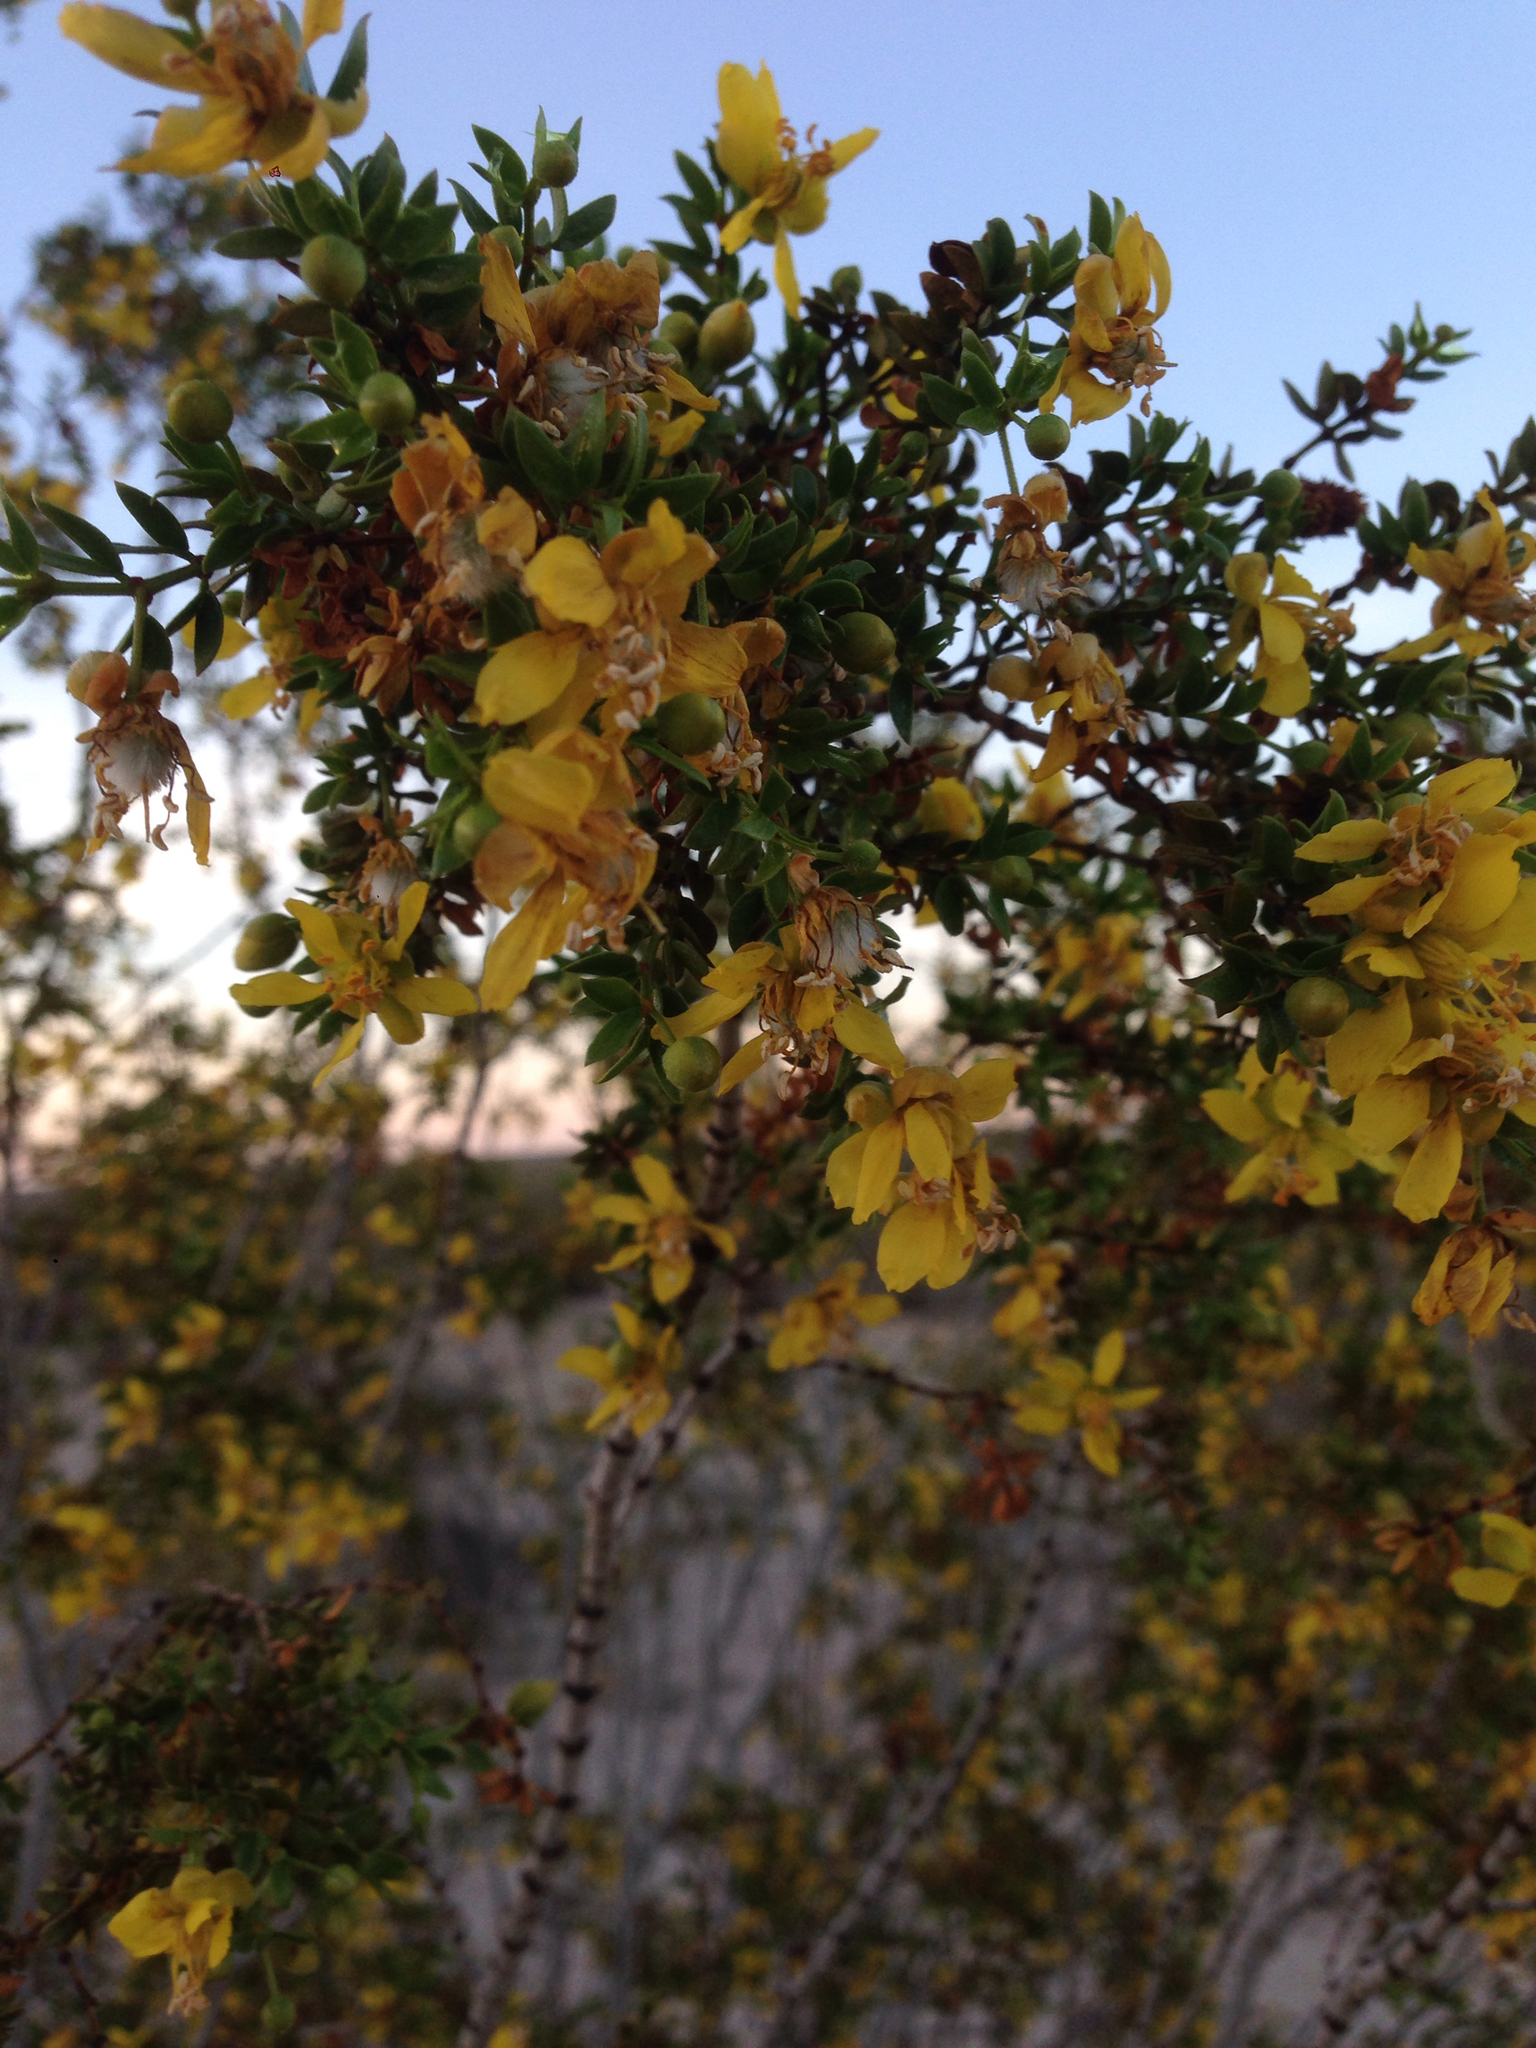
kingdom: Plantae
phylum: Tracheophyta
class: Magnoliopsida
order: Zygophyllales
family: Zygophyllaceae
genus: Larrea
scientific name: Larrea tridentata
